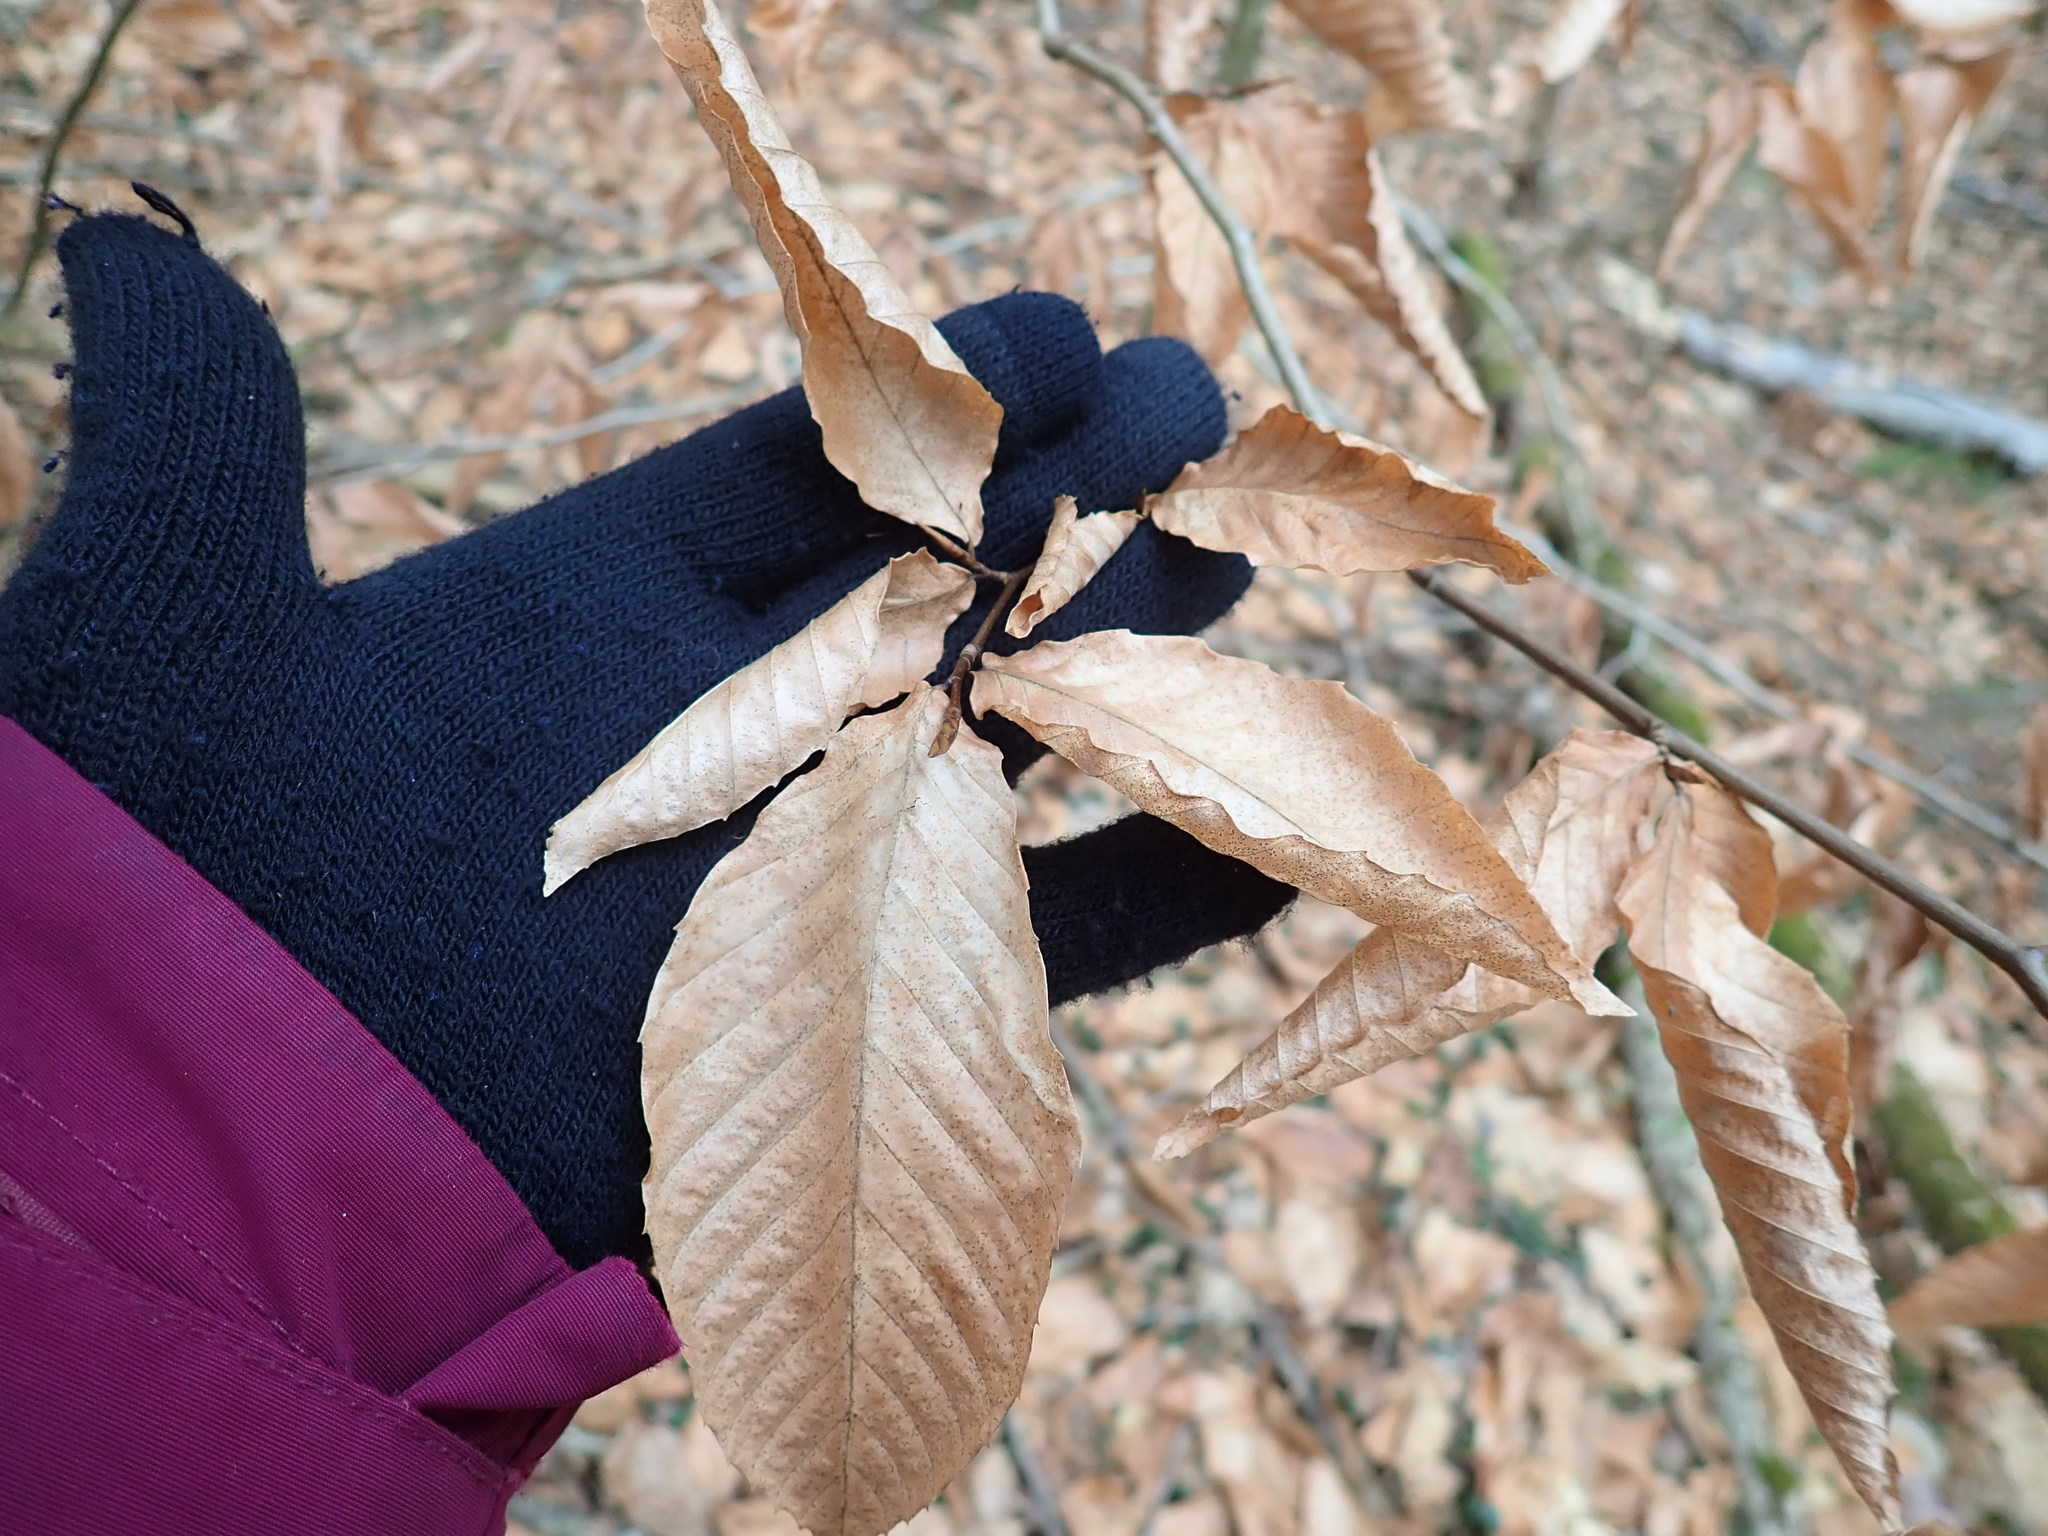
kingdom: Plantae
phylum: Tracheophyta
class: Magnoliopsida
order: Fagales
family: Fagaceae
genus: Fagus
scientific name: Fagus grandifolia
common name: American beech
